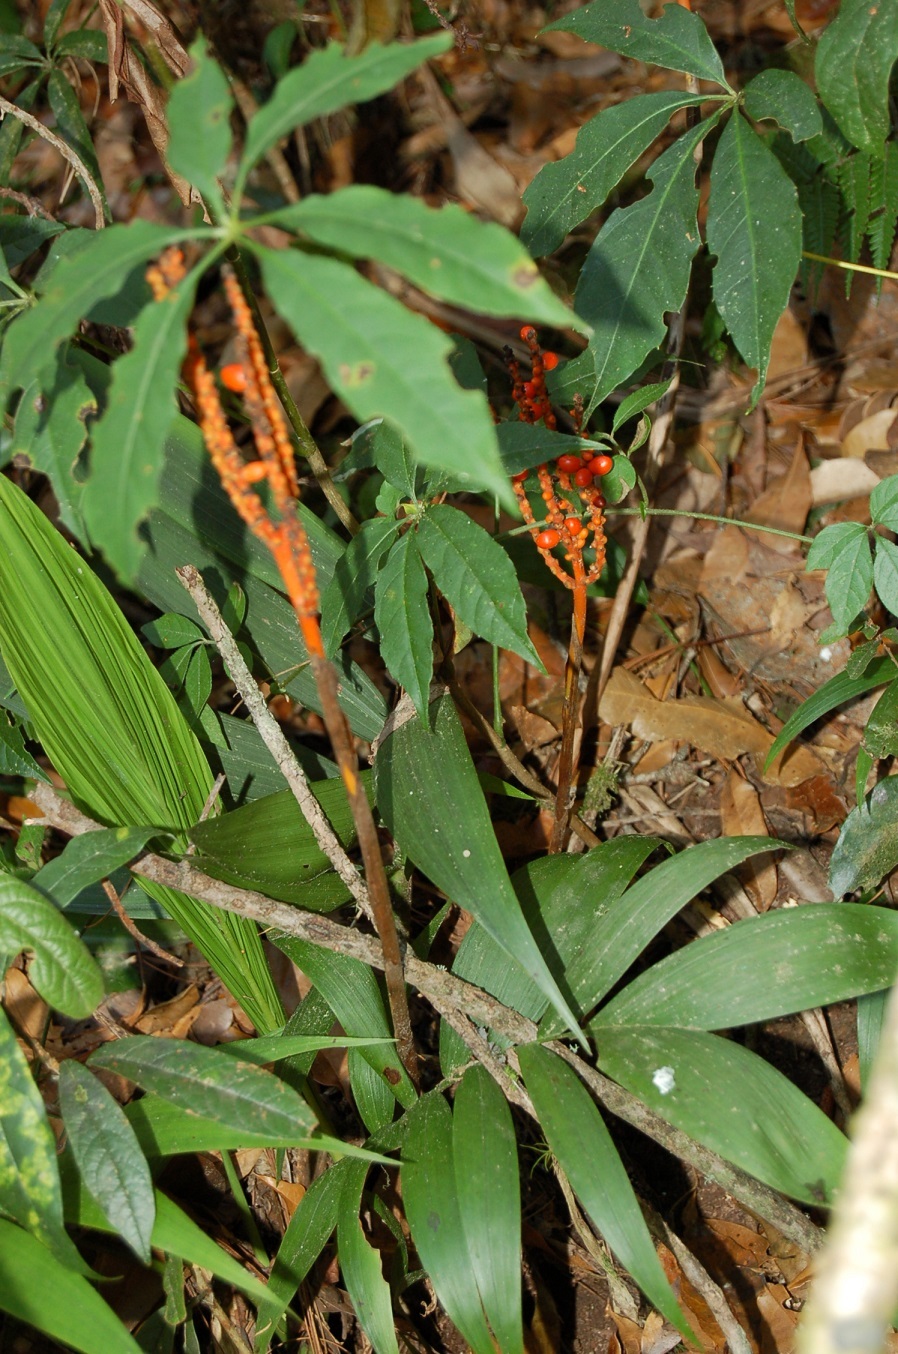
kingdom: Plantae
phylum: Tracheophyta
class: Liliopsida
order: Arecales
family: Arecaceae
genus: Chamaedorea
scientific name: Chamaedorea ibarrae
